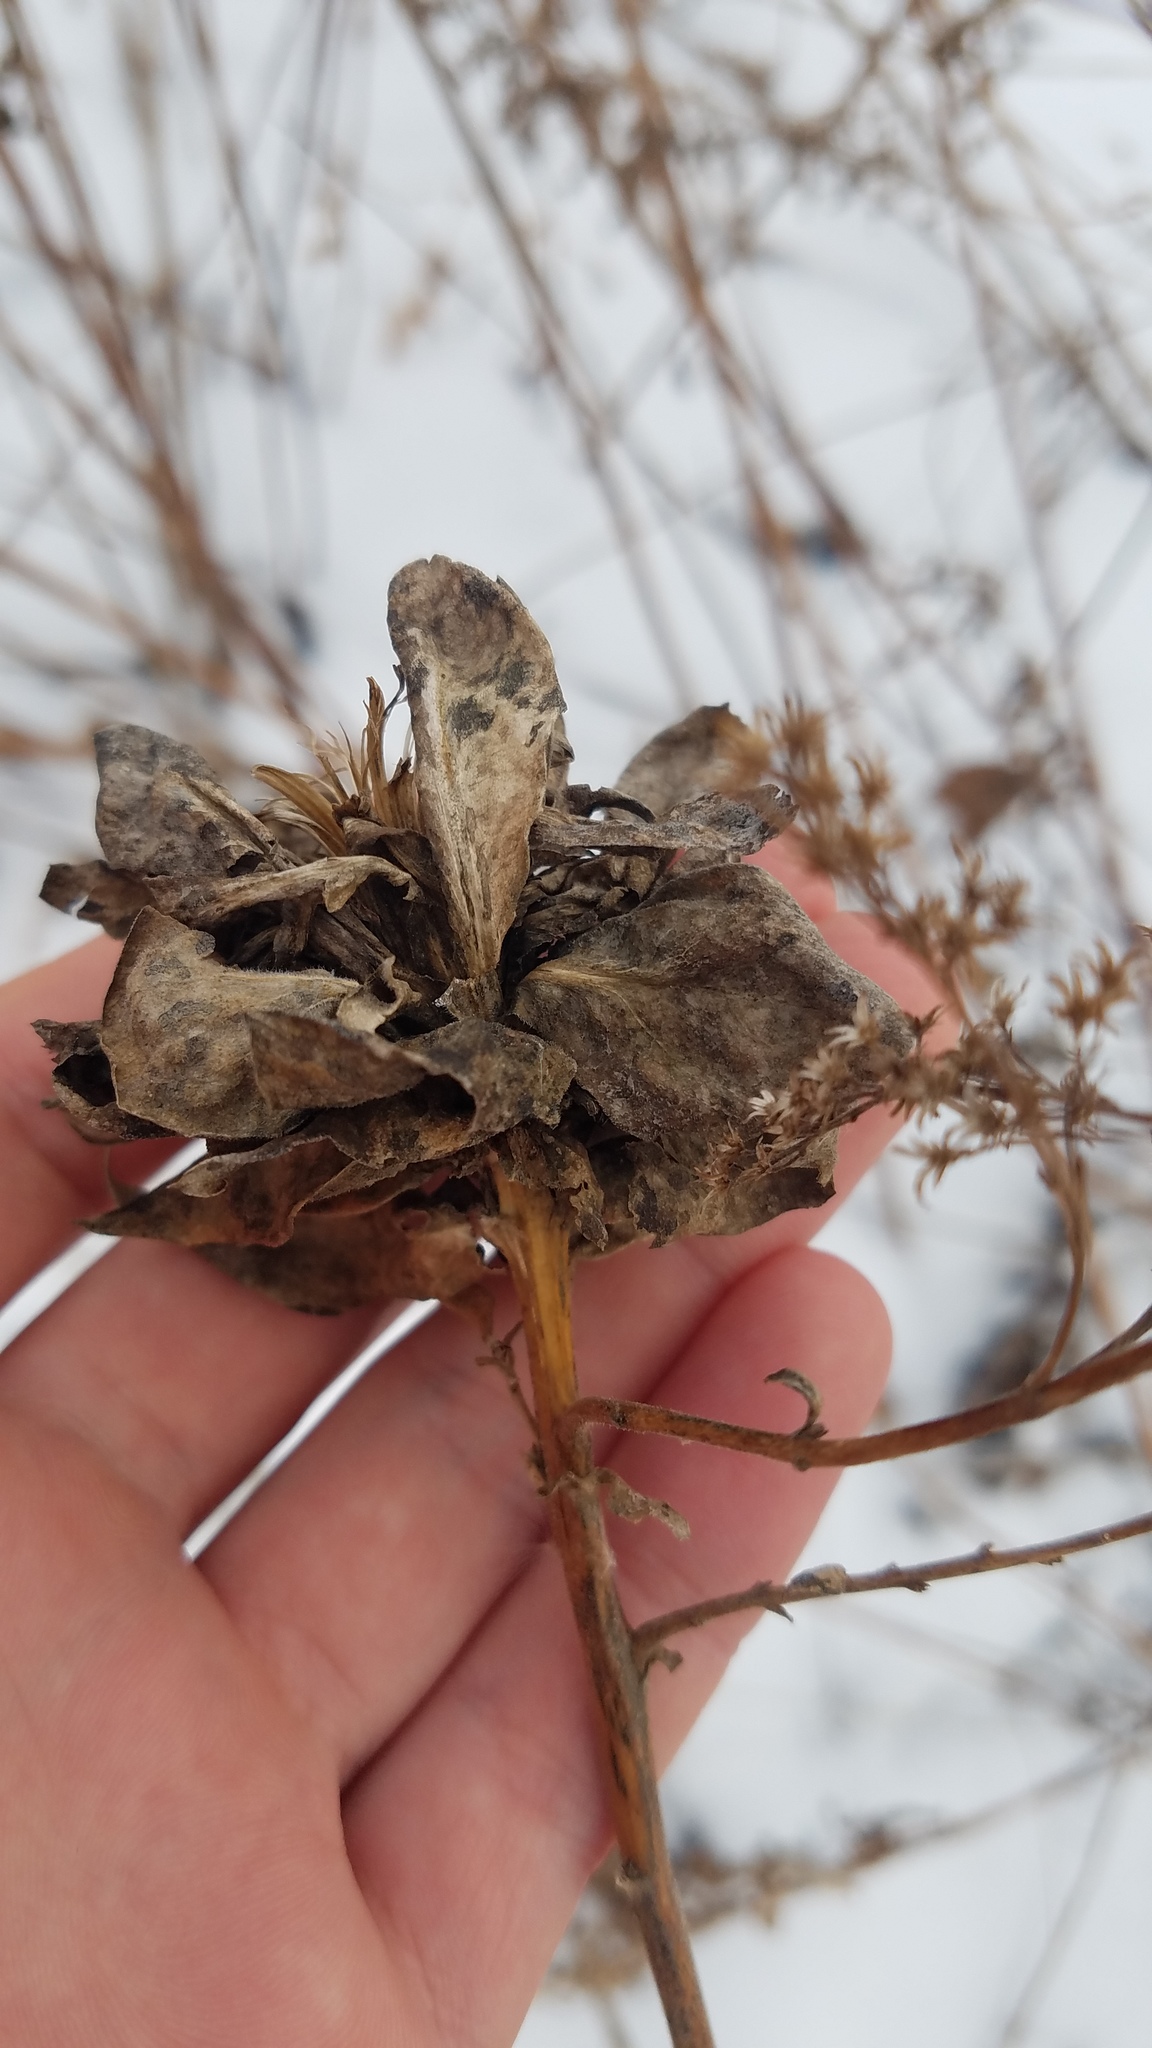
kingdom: Animalia
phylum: Arthropoda
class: Insecta
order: Diptera
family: Cecidomyiidae
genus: Rhopalomyia
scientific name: Rhopalomyia solidaginis
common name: Goldenrod bunch gall midge
